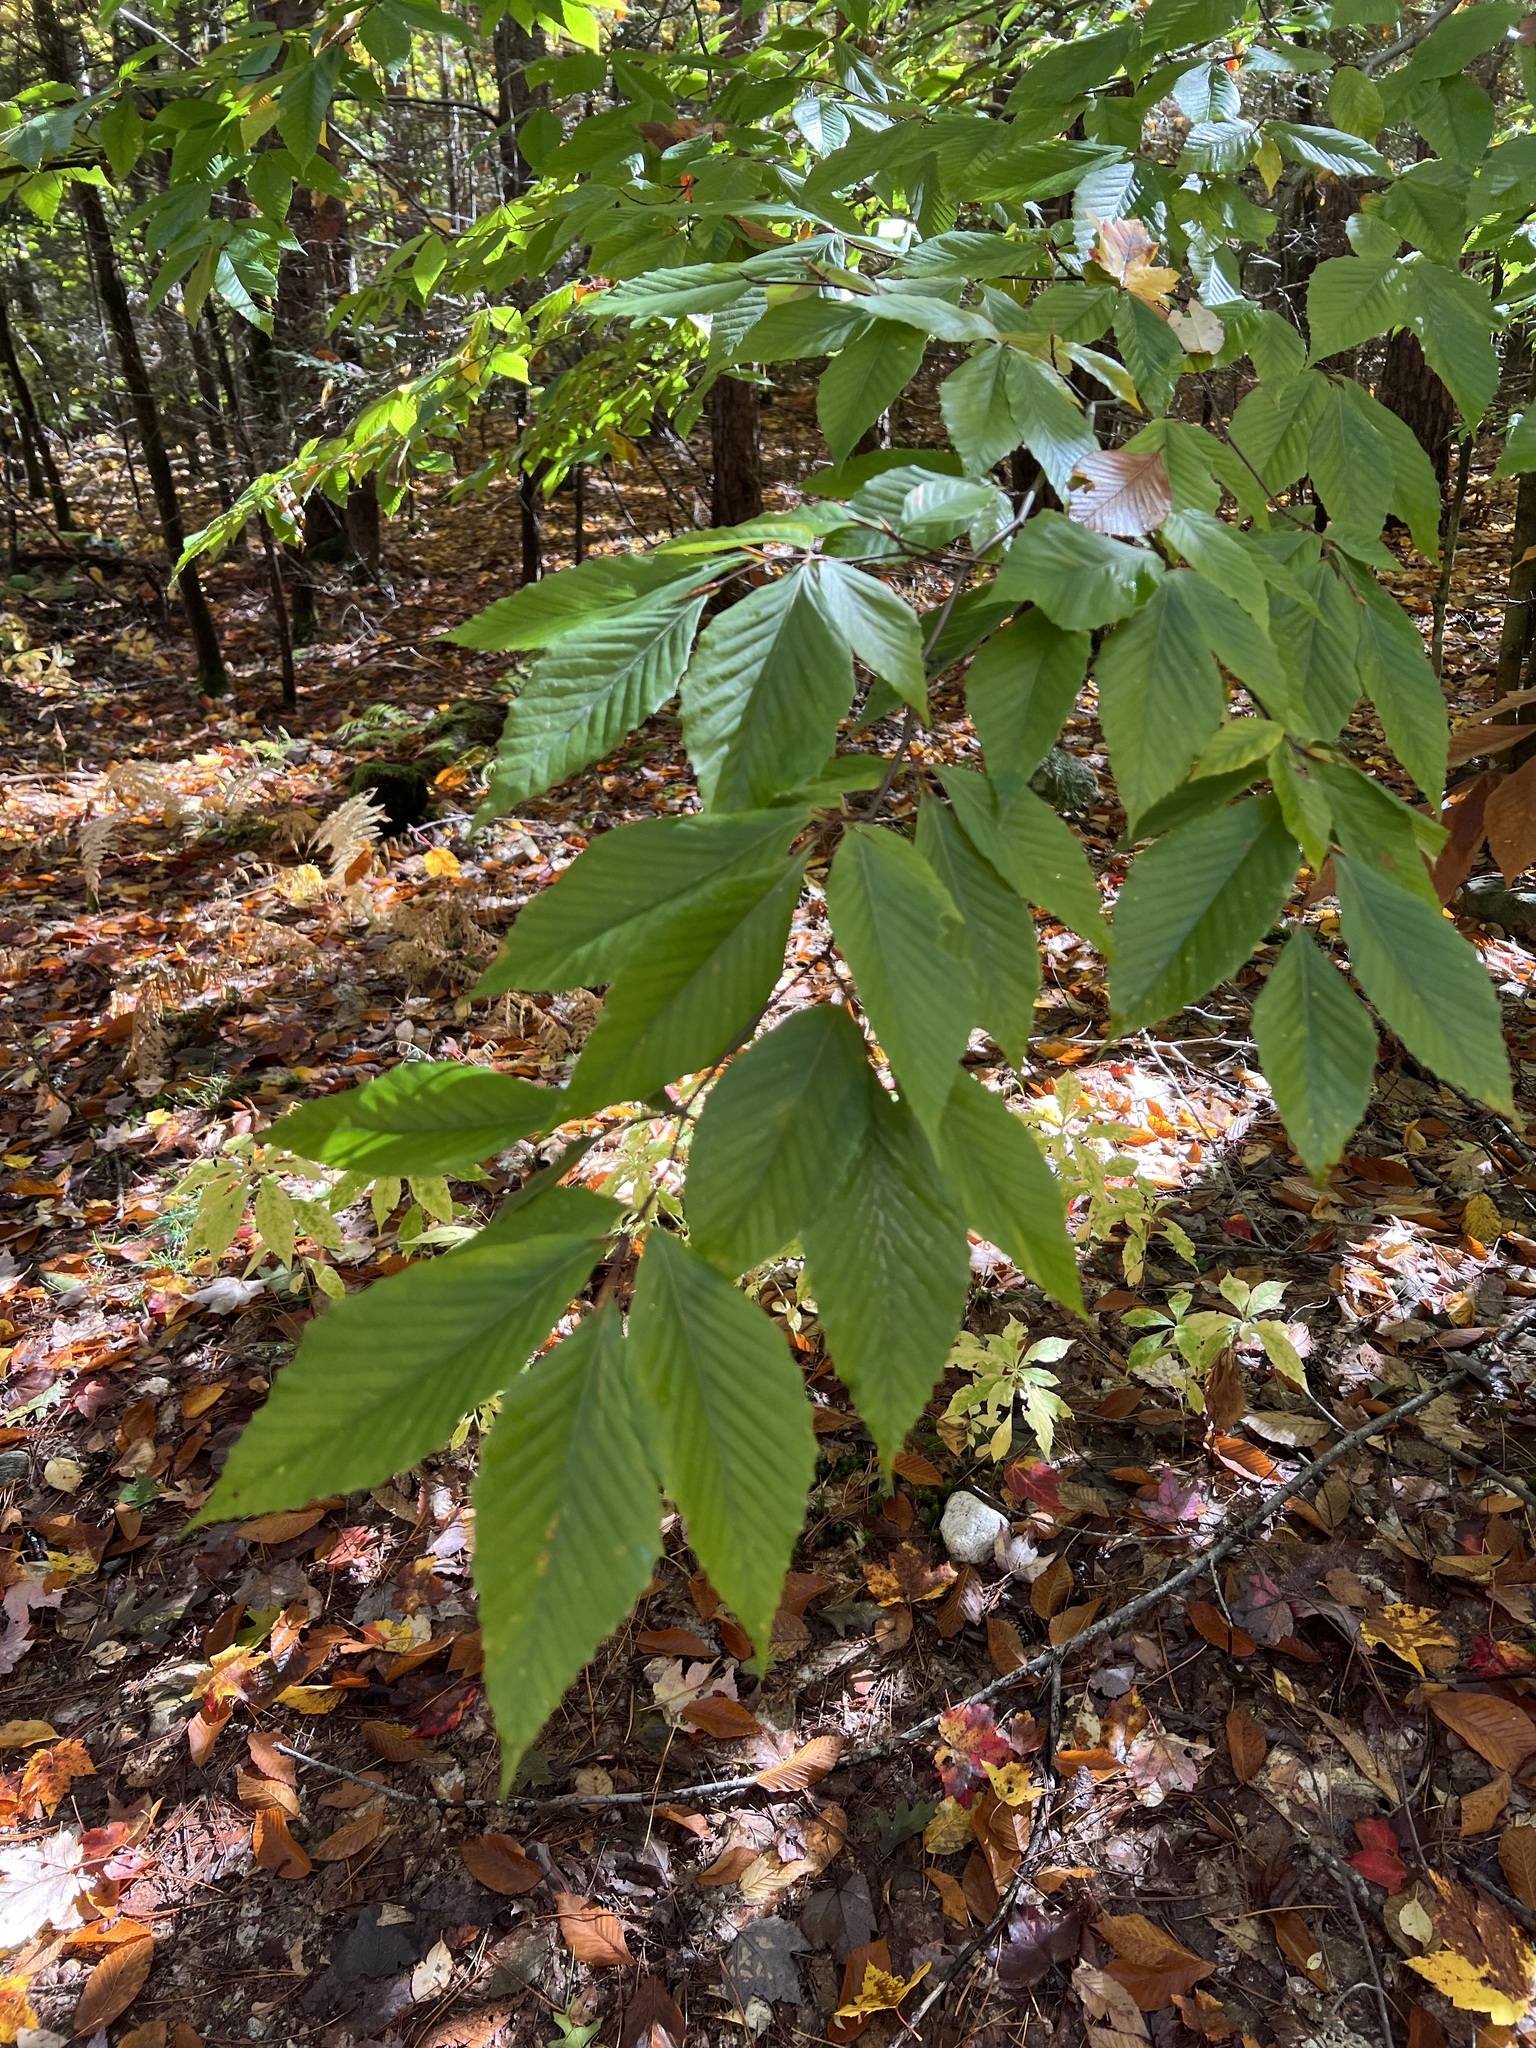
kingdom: Plantae
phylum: Tracheophyta
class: Magnoliopsida
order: Fagales
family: Fagaceae
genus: Fagus
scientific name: Fagus grandifolia
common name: American beech
